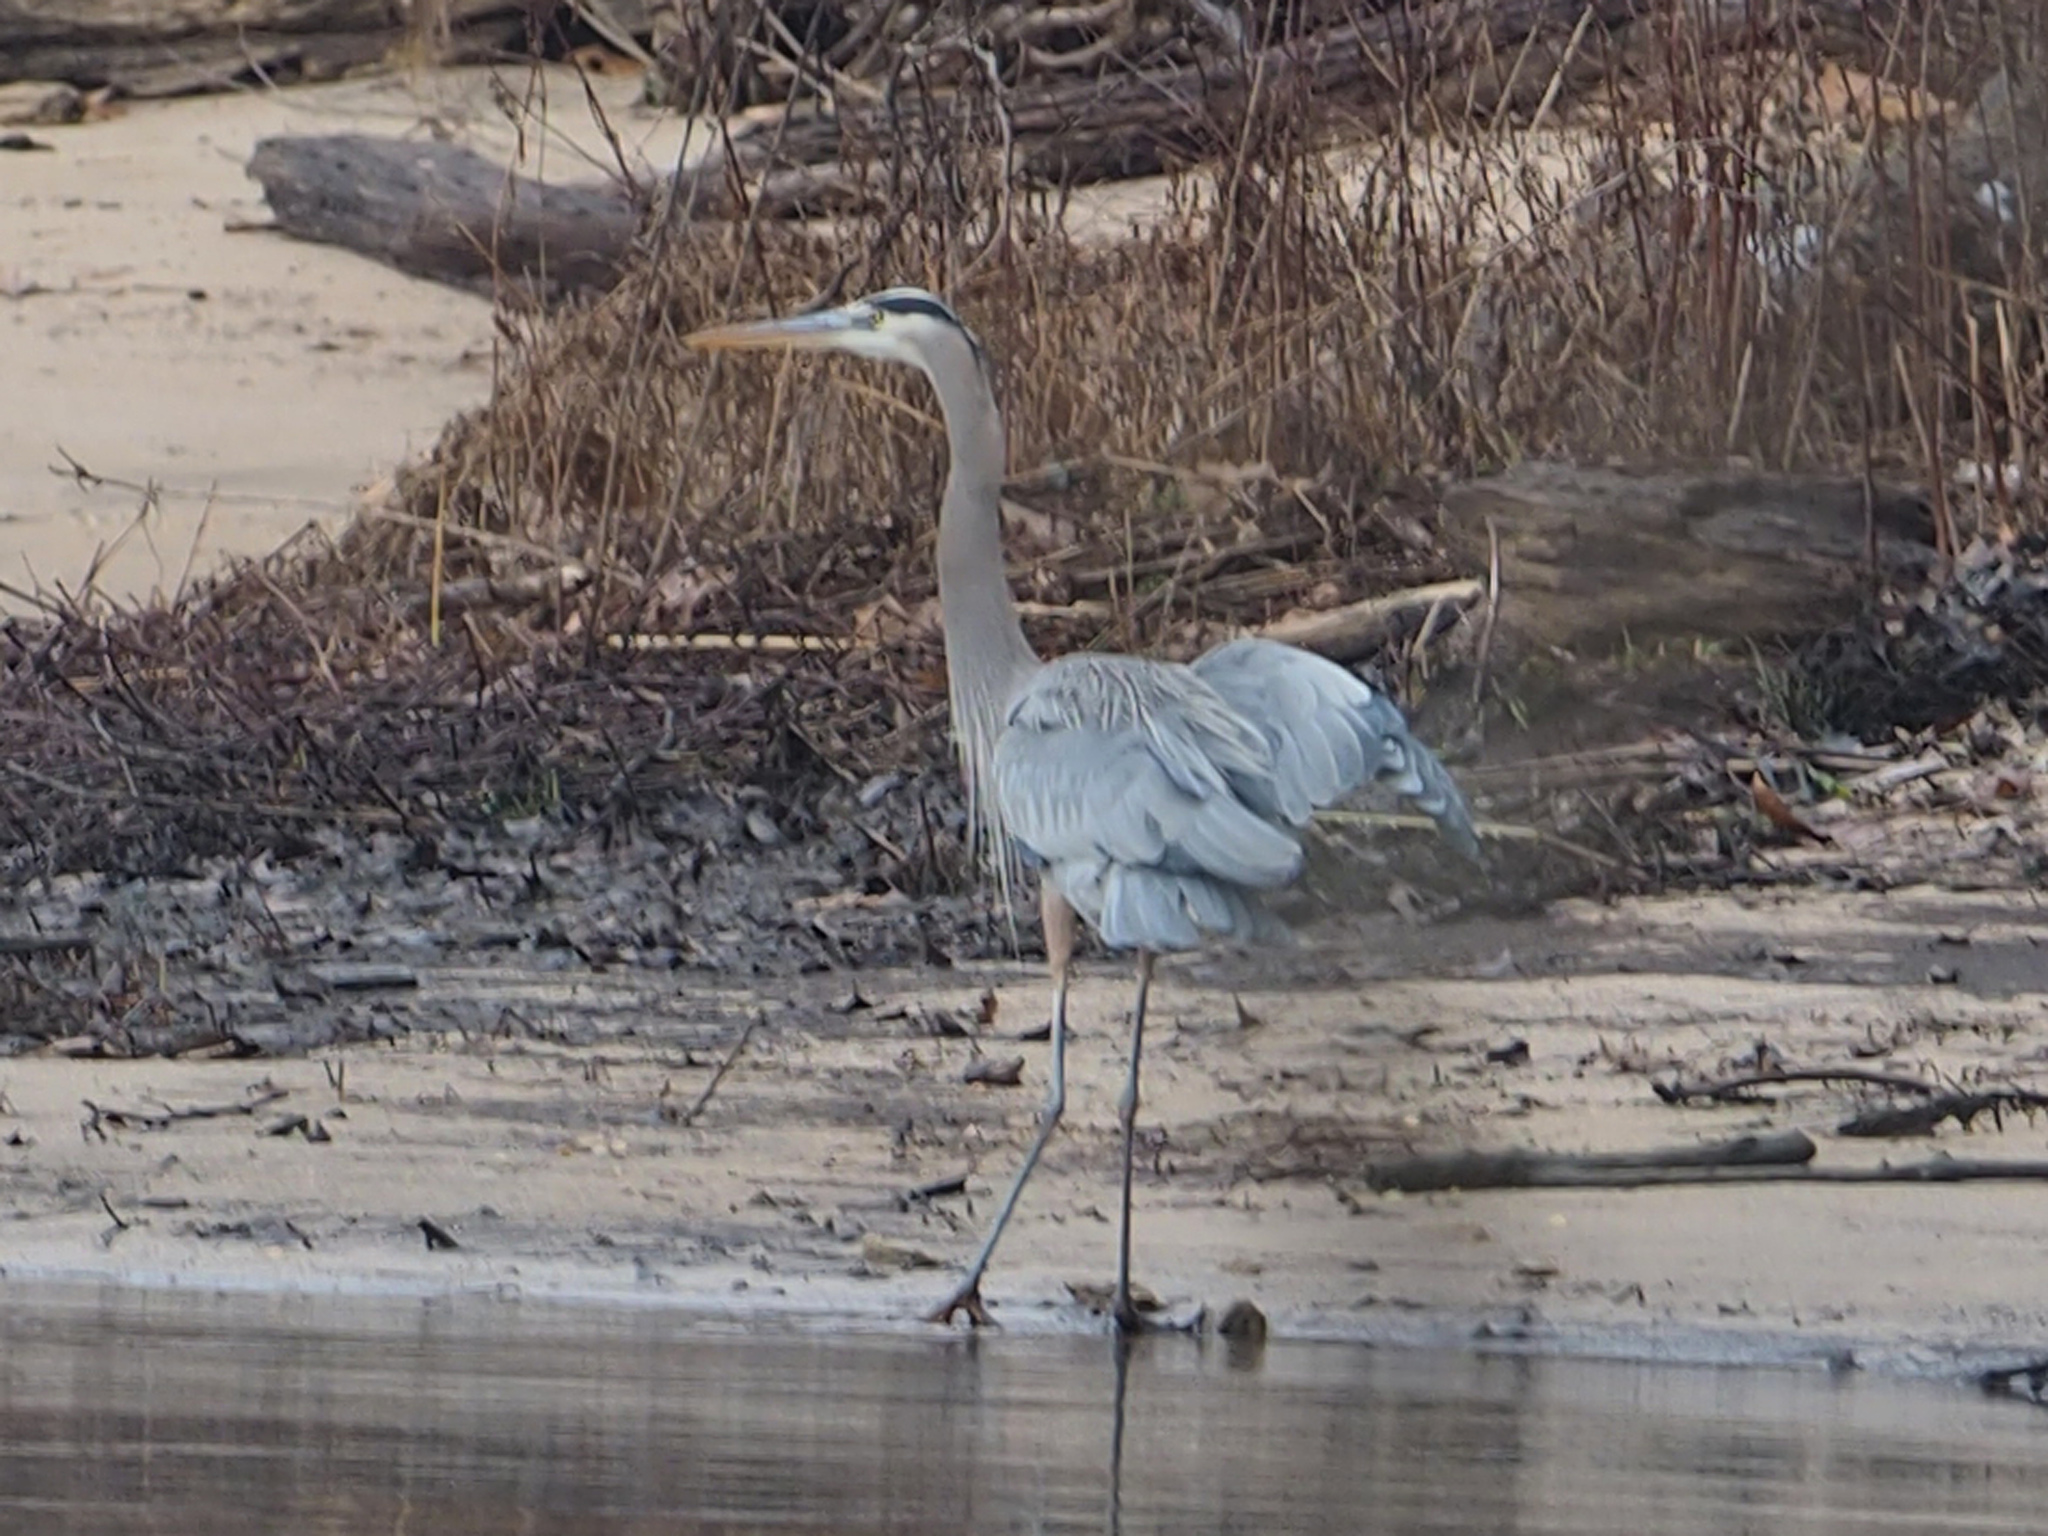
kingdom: Animalia
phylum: Chordata
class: Aves
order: Pelecaniformes
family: Ardeidae
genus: Ardea
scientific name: Ardea herodias
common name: Great blue heron
